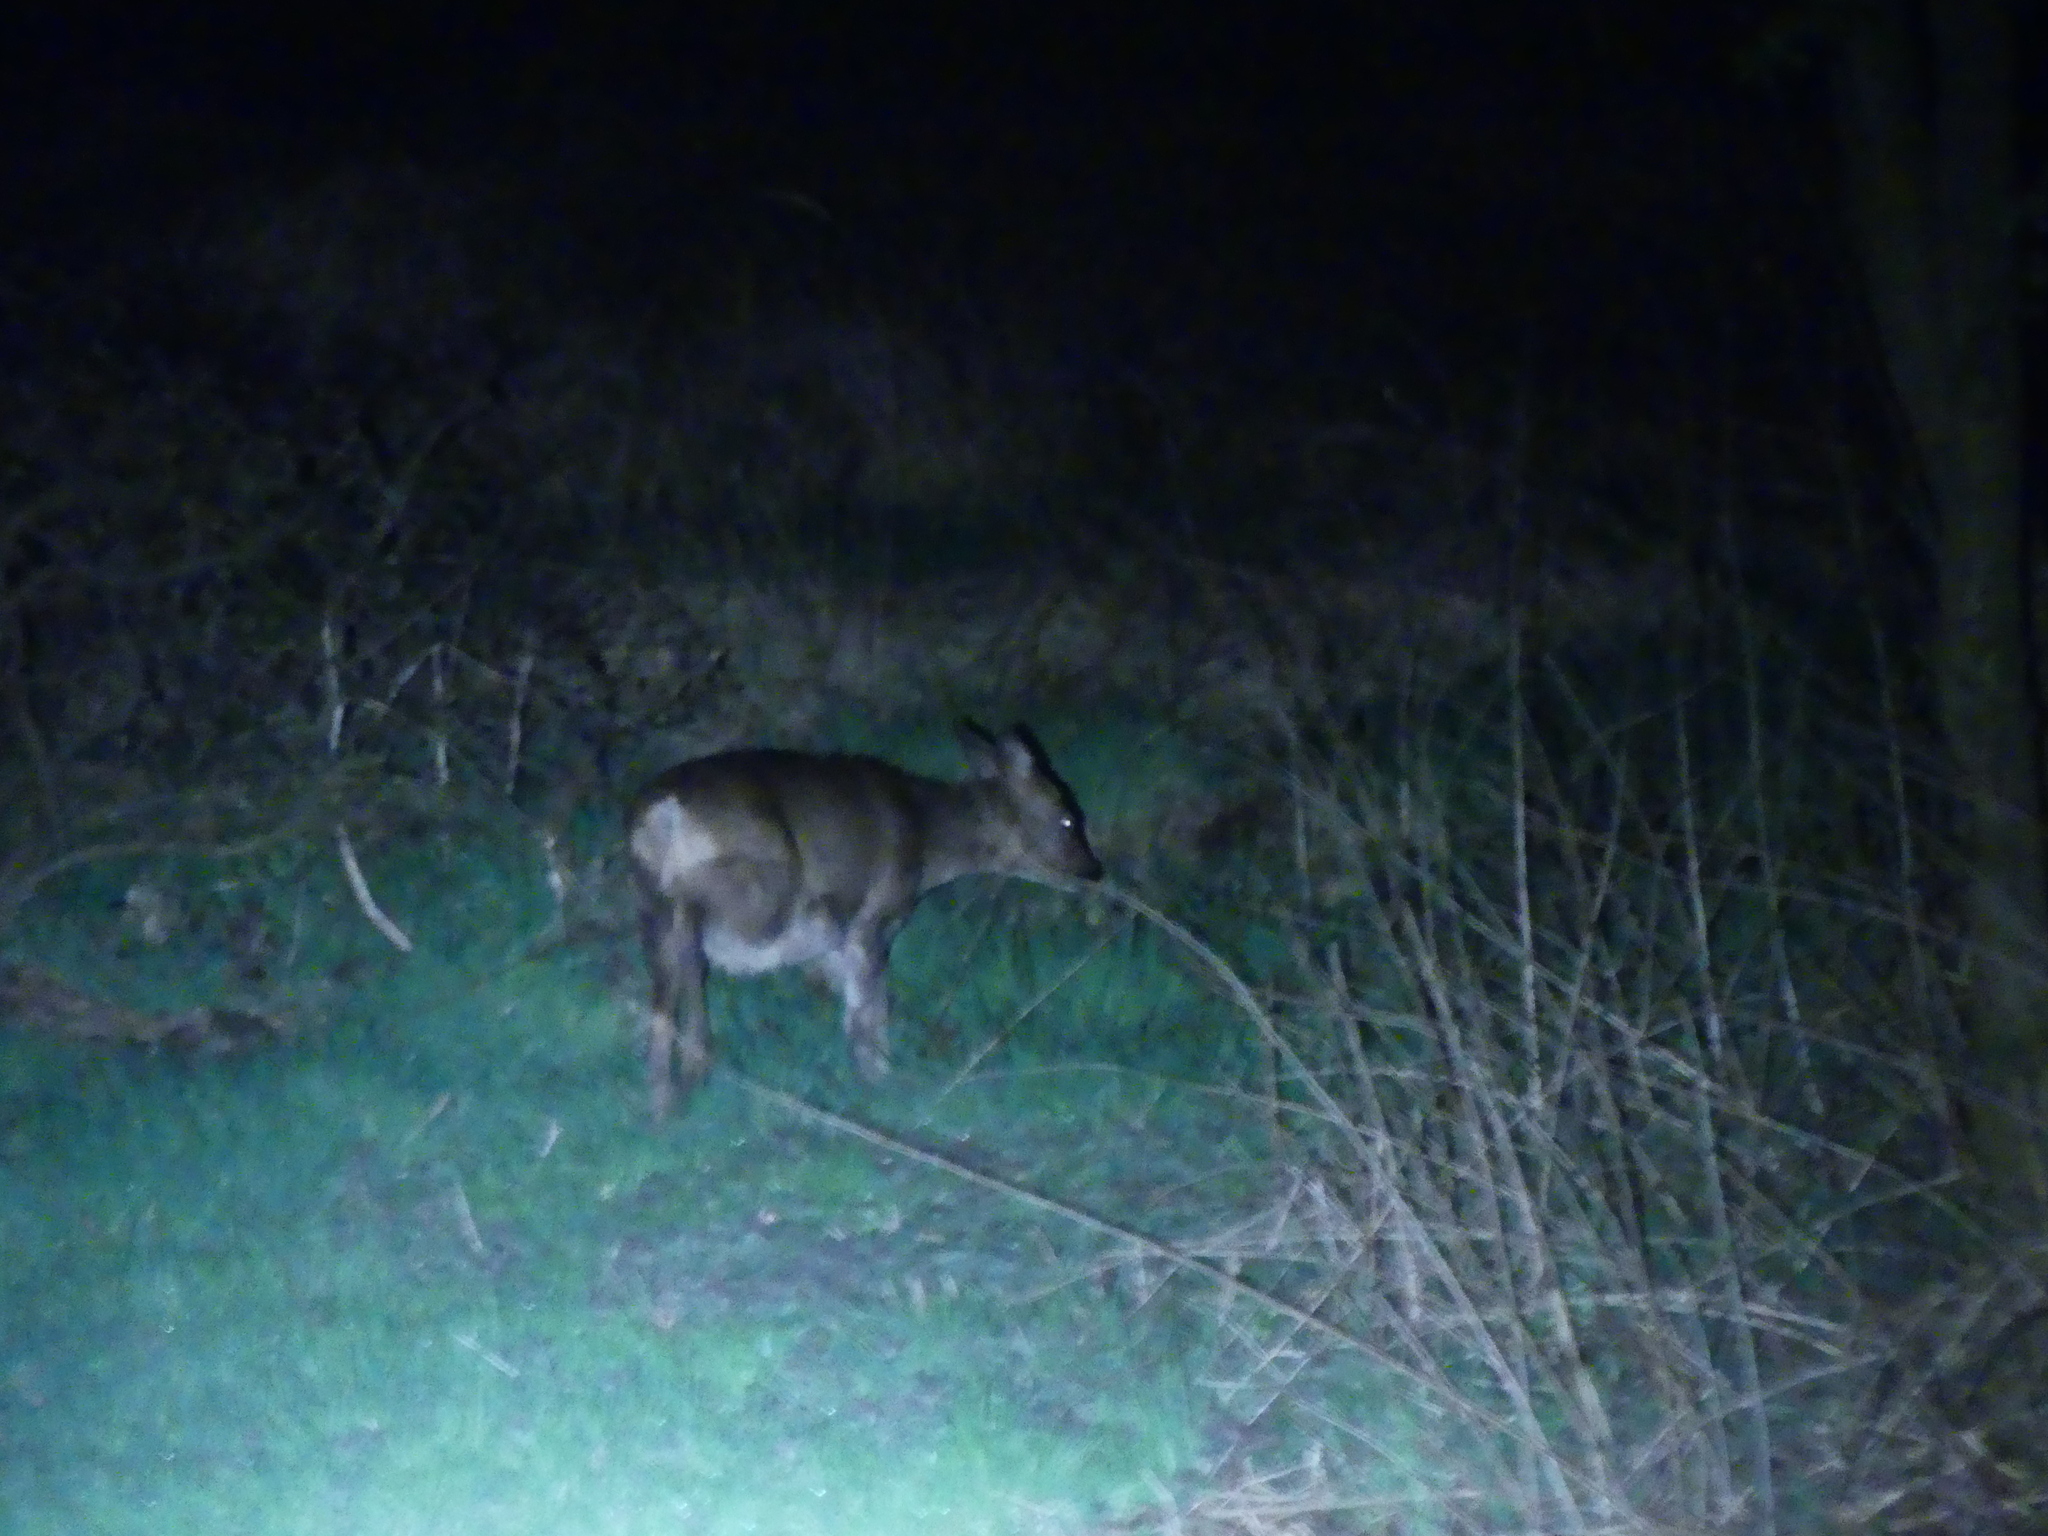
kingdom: Animalia
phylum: Chordata
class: Mammalia
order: Artiodactyla
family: Cervidae
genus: Capreolus
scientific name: Capreolus capreolus
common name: Western roe deer
